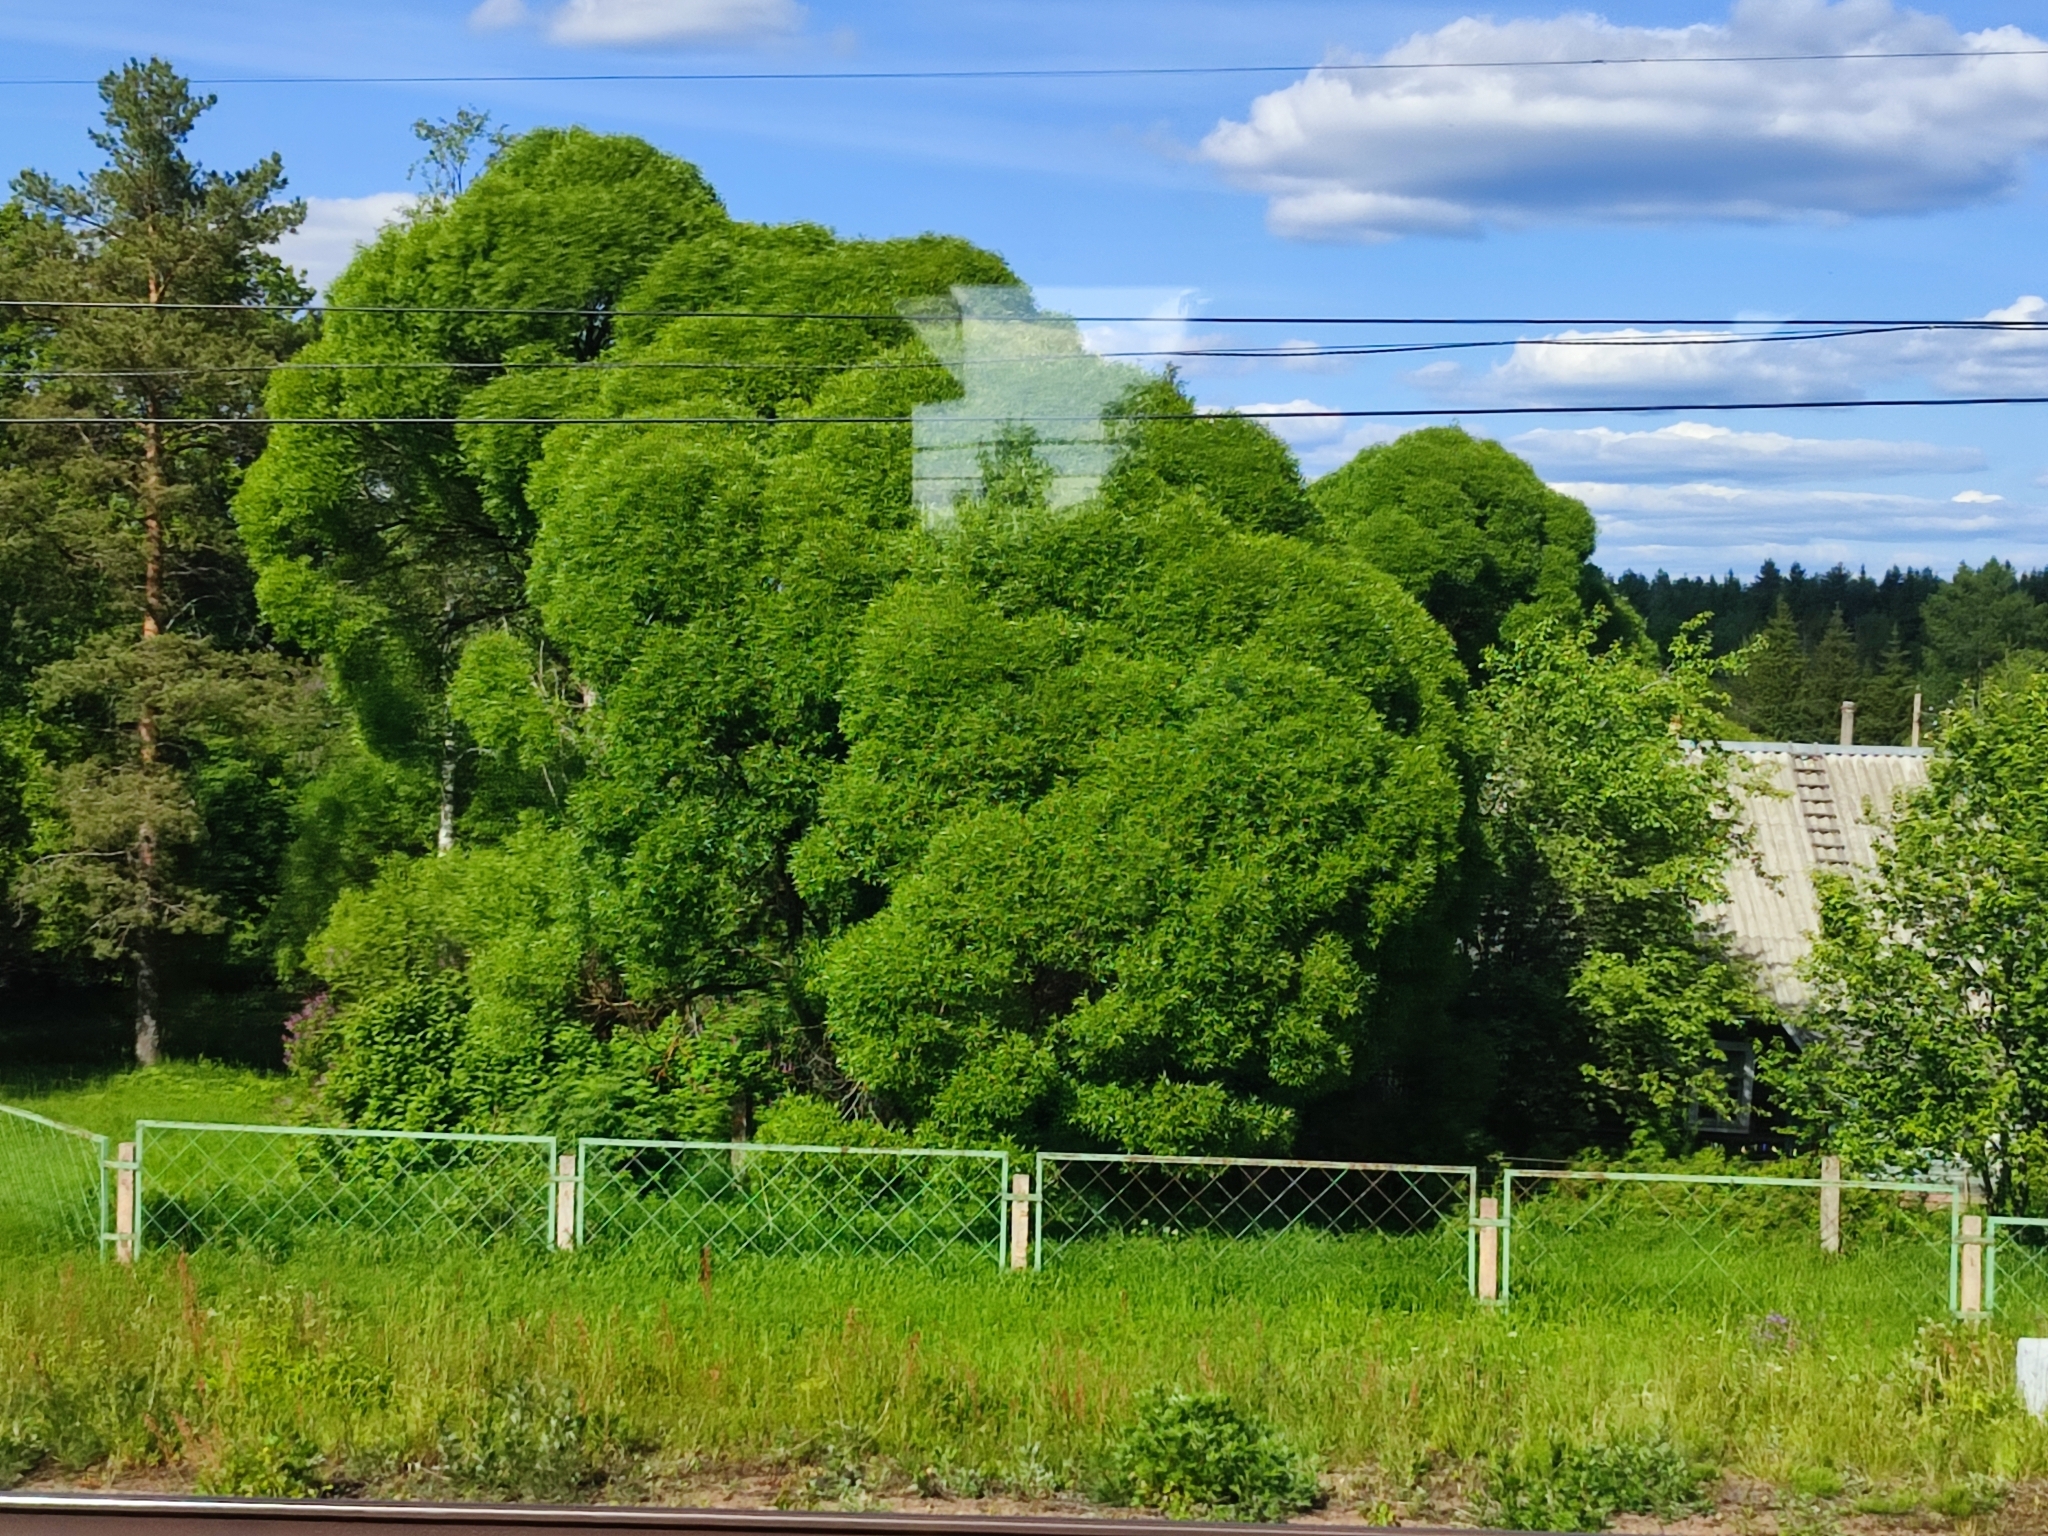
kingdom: Plantae
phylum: Tracheophyta
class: Magnoliopsida
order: Malpighiales
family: Salicaceae
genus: Salix
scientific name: Salix alba
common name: White willow
